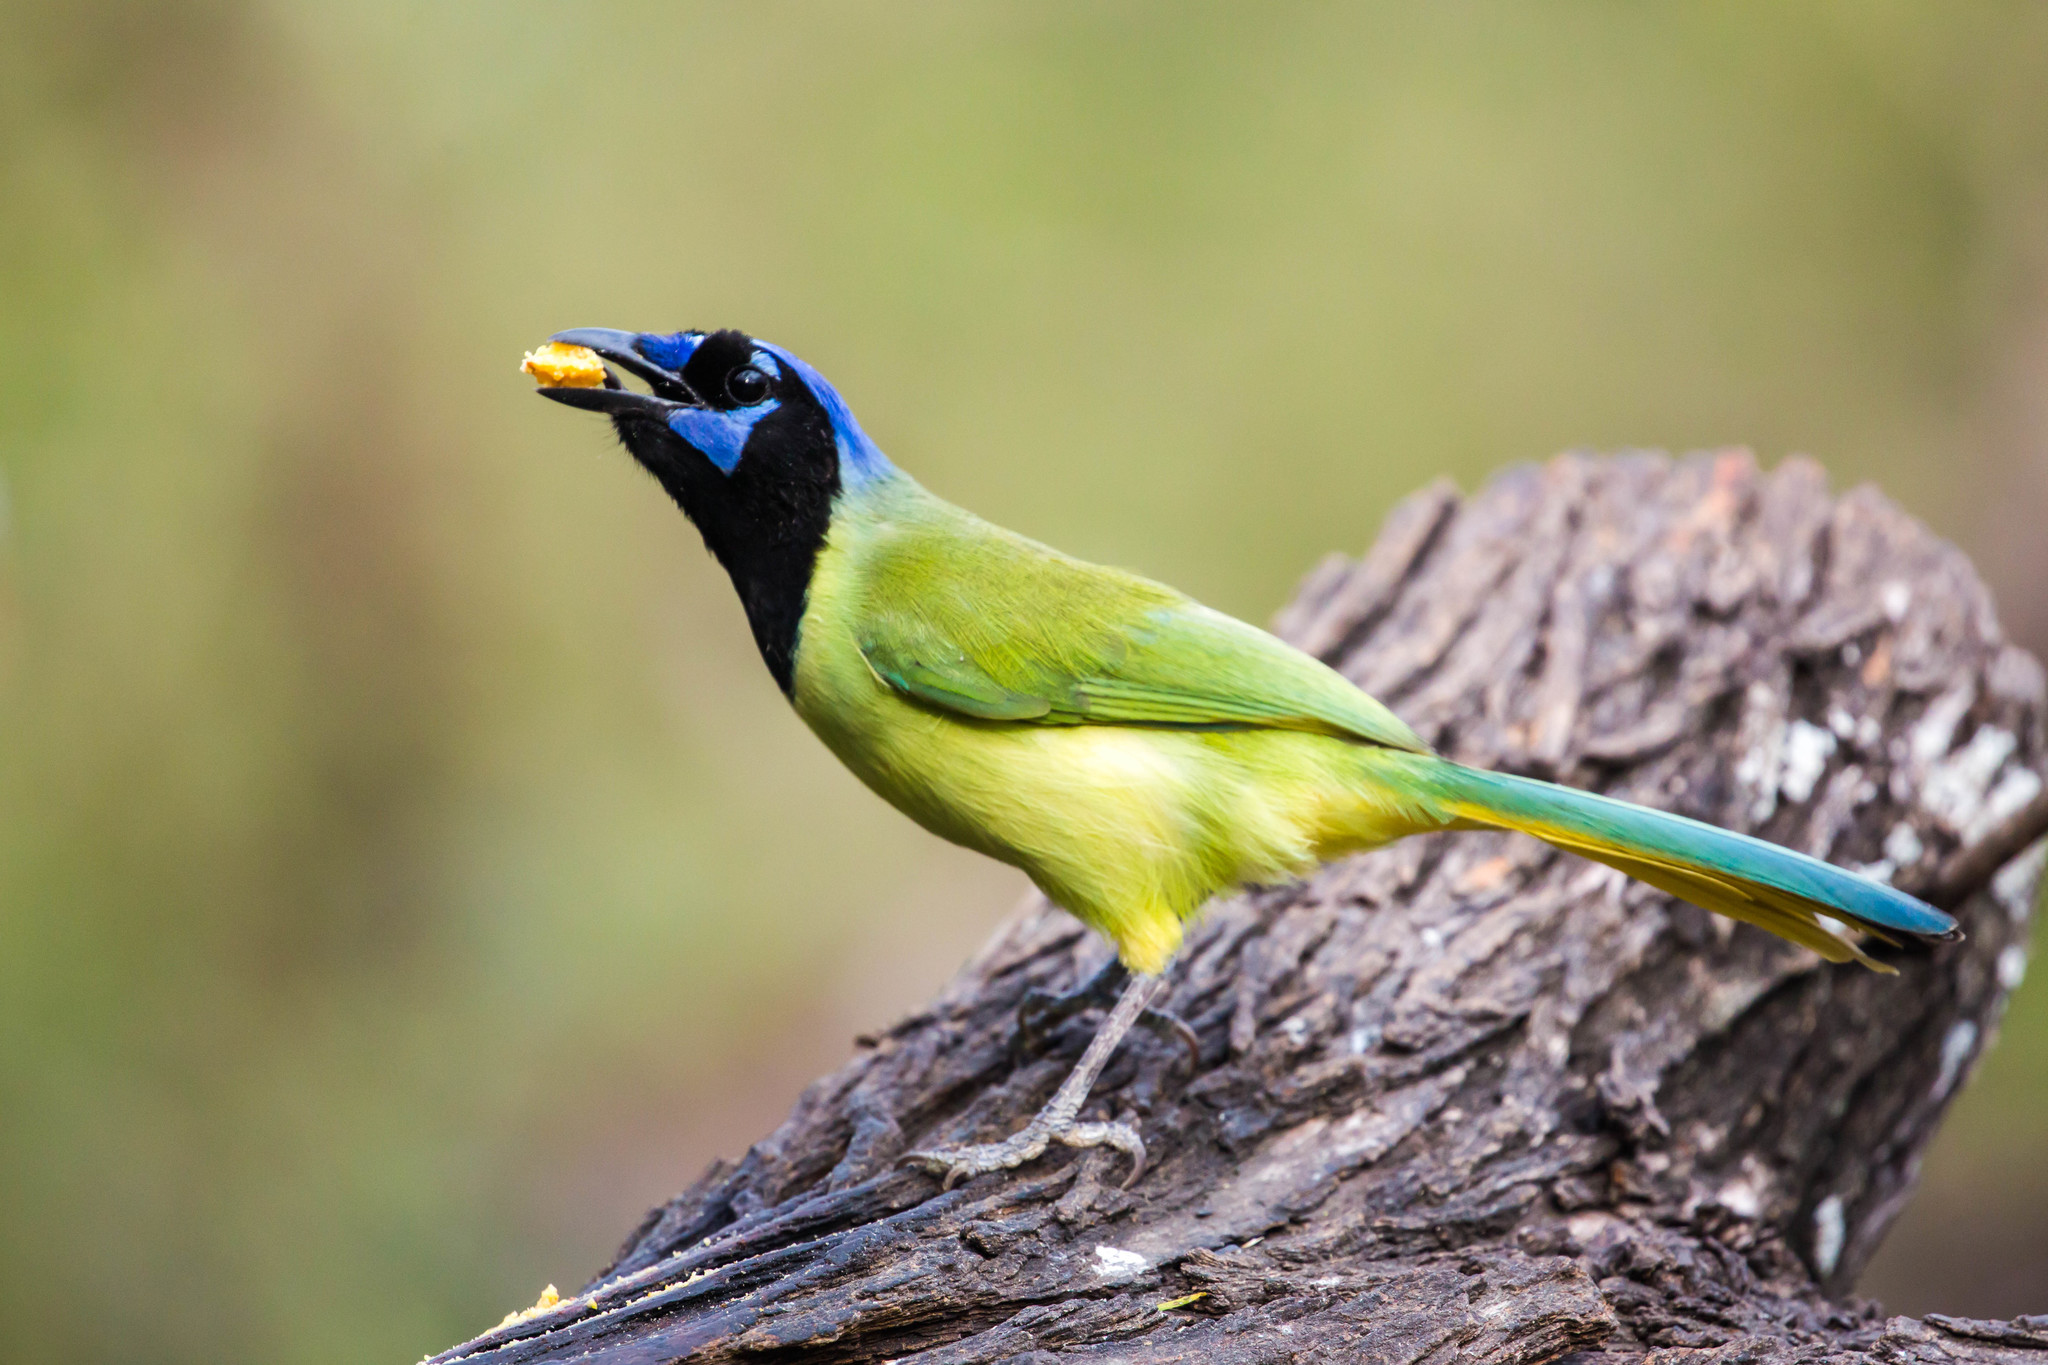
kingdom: Animalia
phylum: Chordata
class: Aves
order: Passeriformes
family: Corvidae
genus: Cyanocorax
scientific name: Cyanocorax yncas
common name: Green jay
